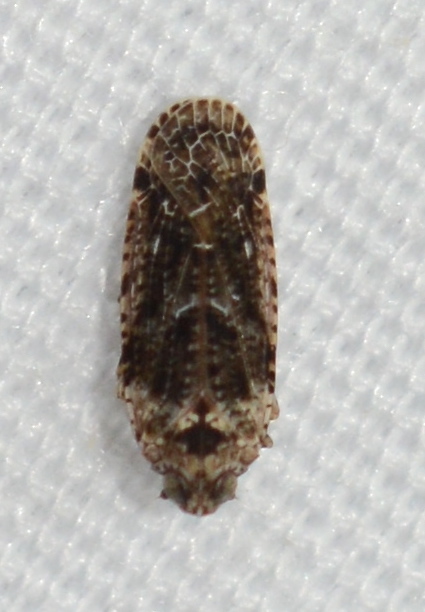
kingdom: Animalia
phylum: Arthropoda
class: Insecta
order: Hemiptera
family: Achilidae
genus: Catonia
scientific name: Catonia nava
